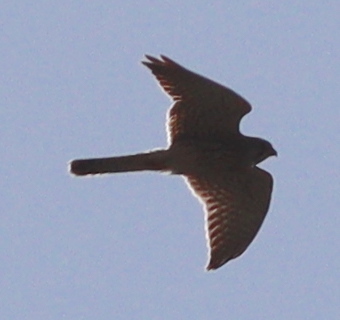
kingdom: Animalia
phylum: Chordata
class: Aves
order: Falconiformes
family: Falconidae
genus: Falco
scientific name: Falco tinnunculus
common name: Common kestrel
